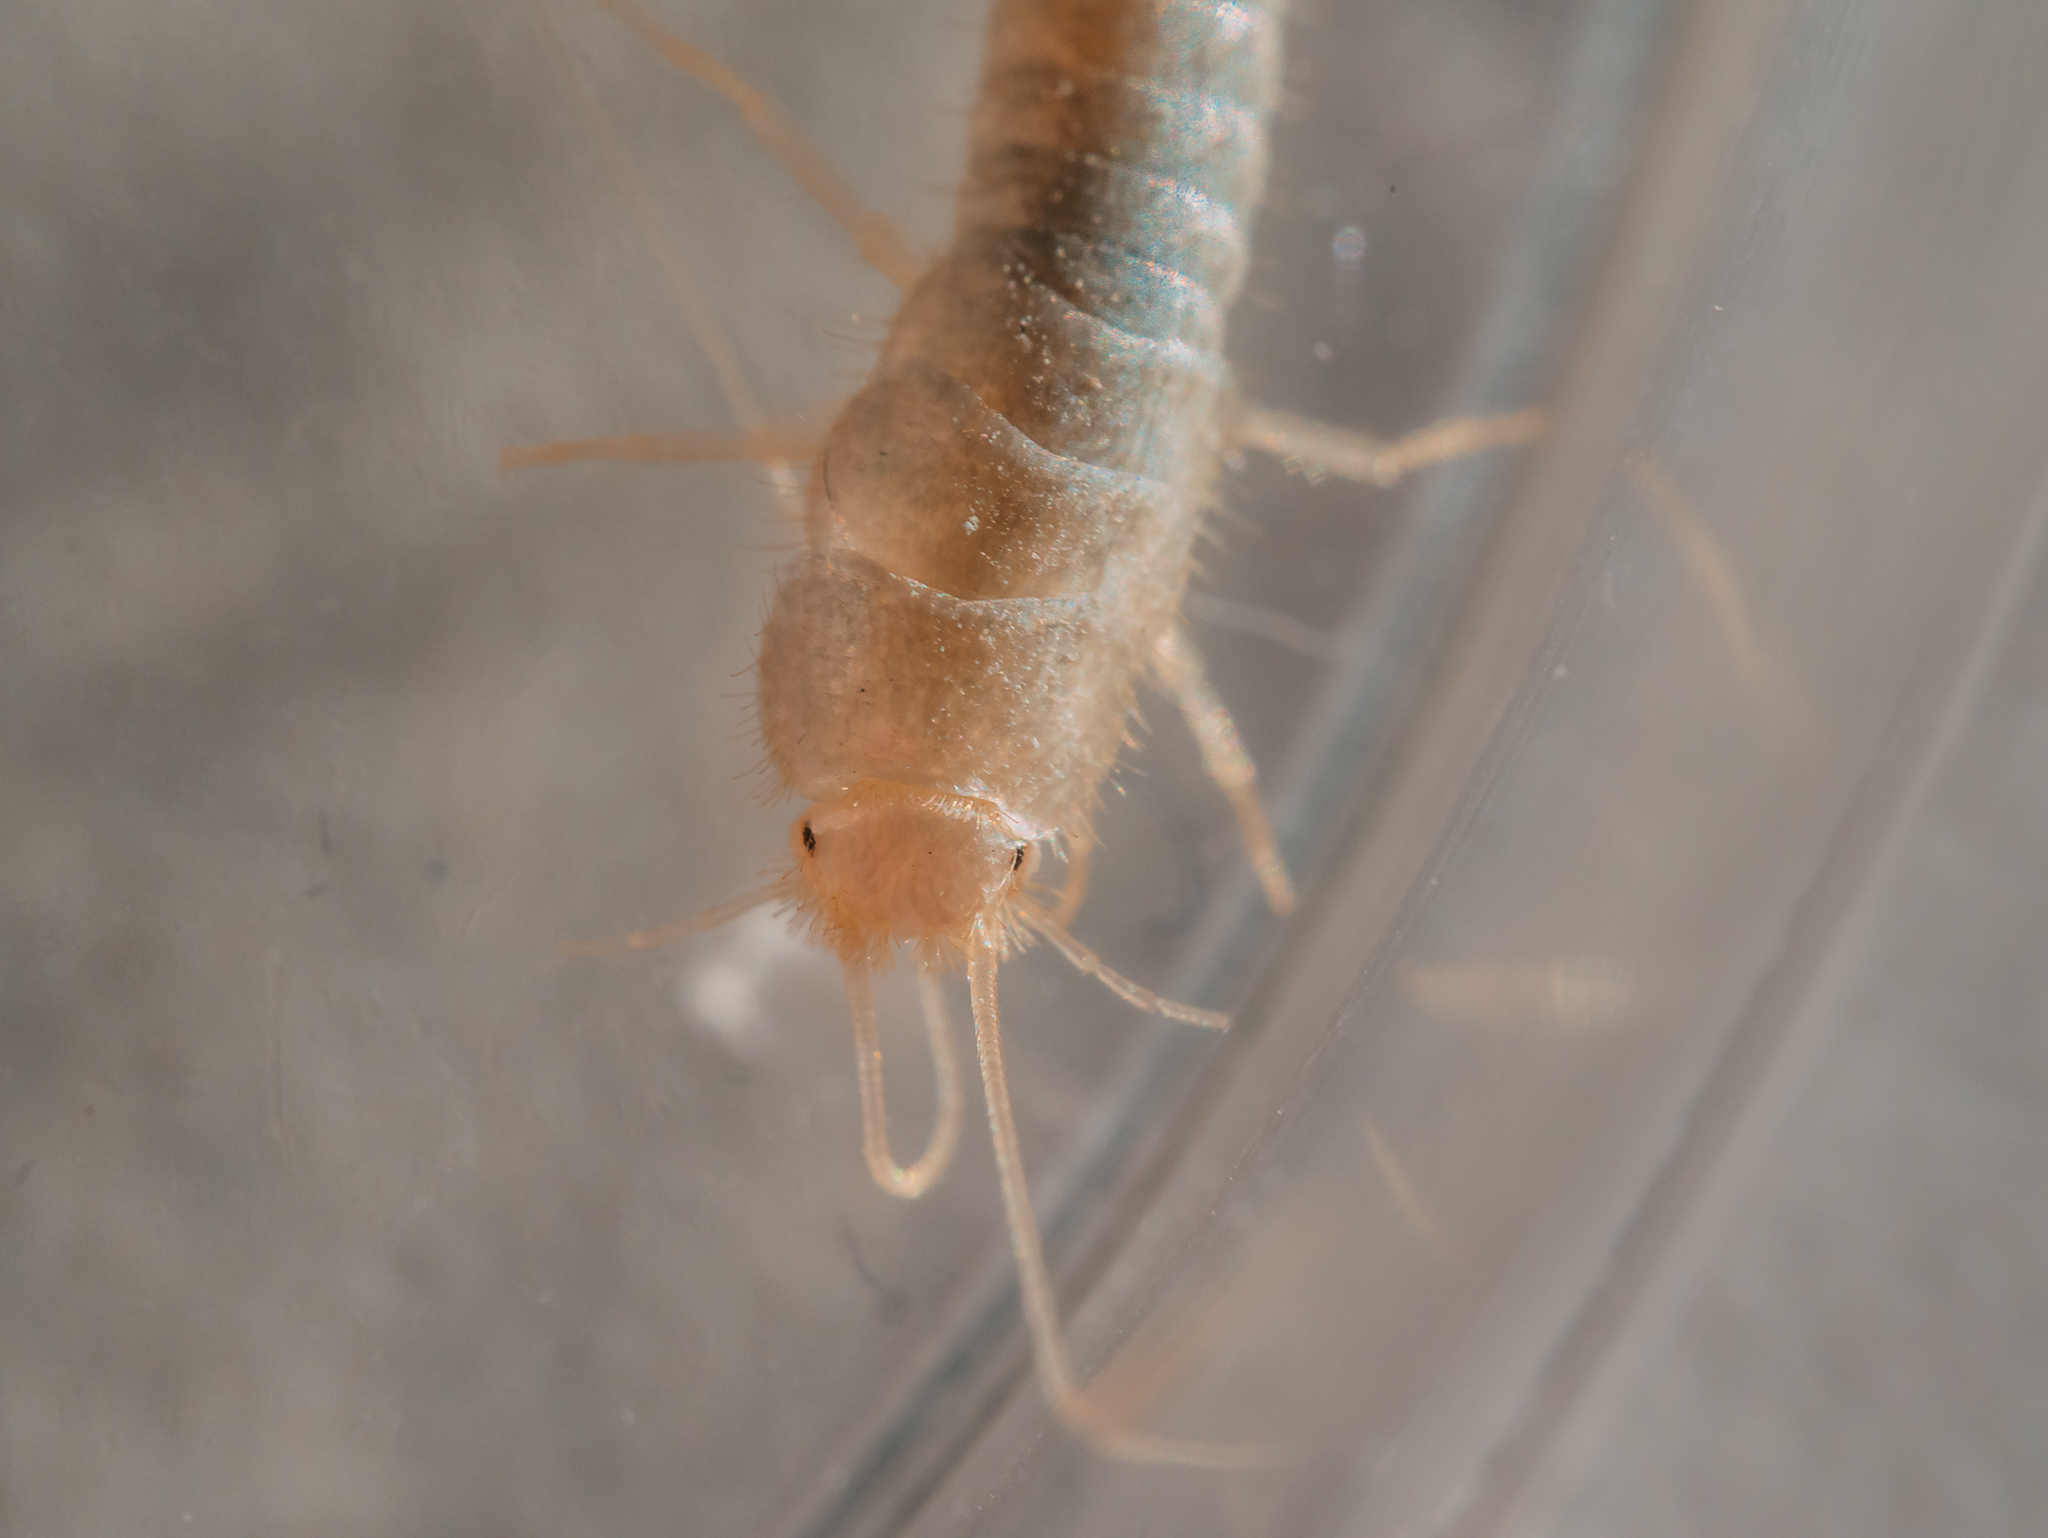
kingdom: Animalia
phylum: Arthropoda
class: Insecta
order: Zygentoma
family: Lepismatidae
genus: Ctenolepisma
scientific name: Ctenolepisma calvum
